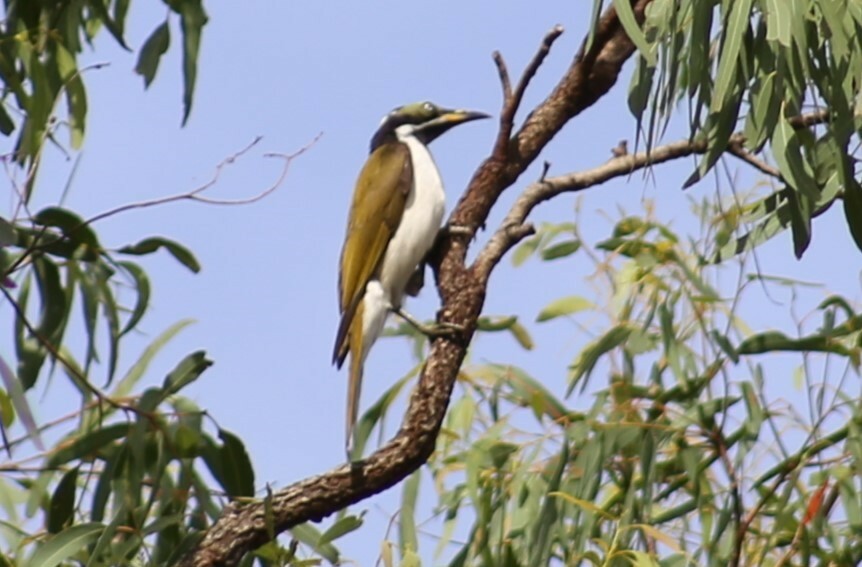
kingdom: Animalia
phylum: Chordata
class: Aves
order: Passeriformes
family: Meliphagidae
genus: Entomyzon
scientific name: Entomyzon cyanotis
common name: Blue-faced honeyeater
